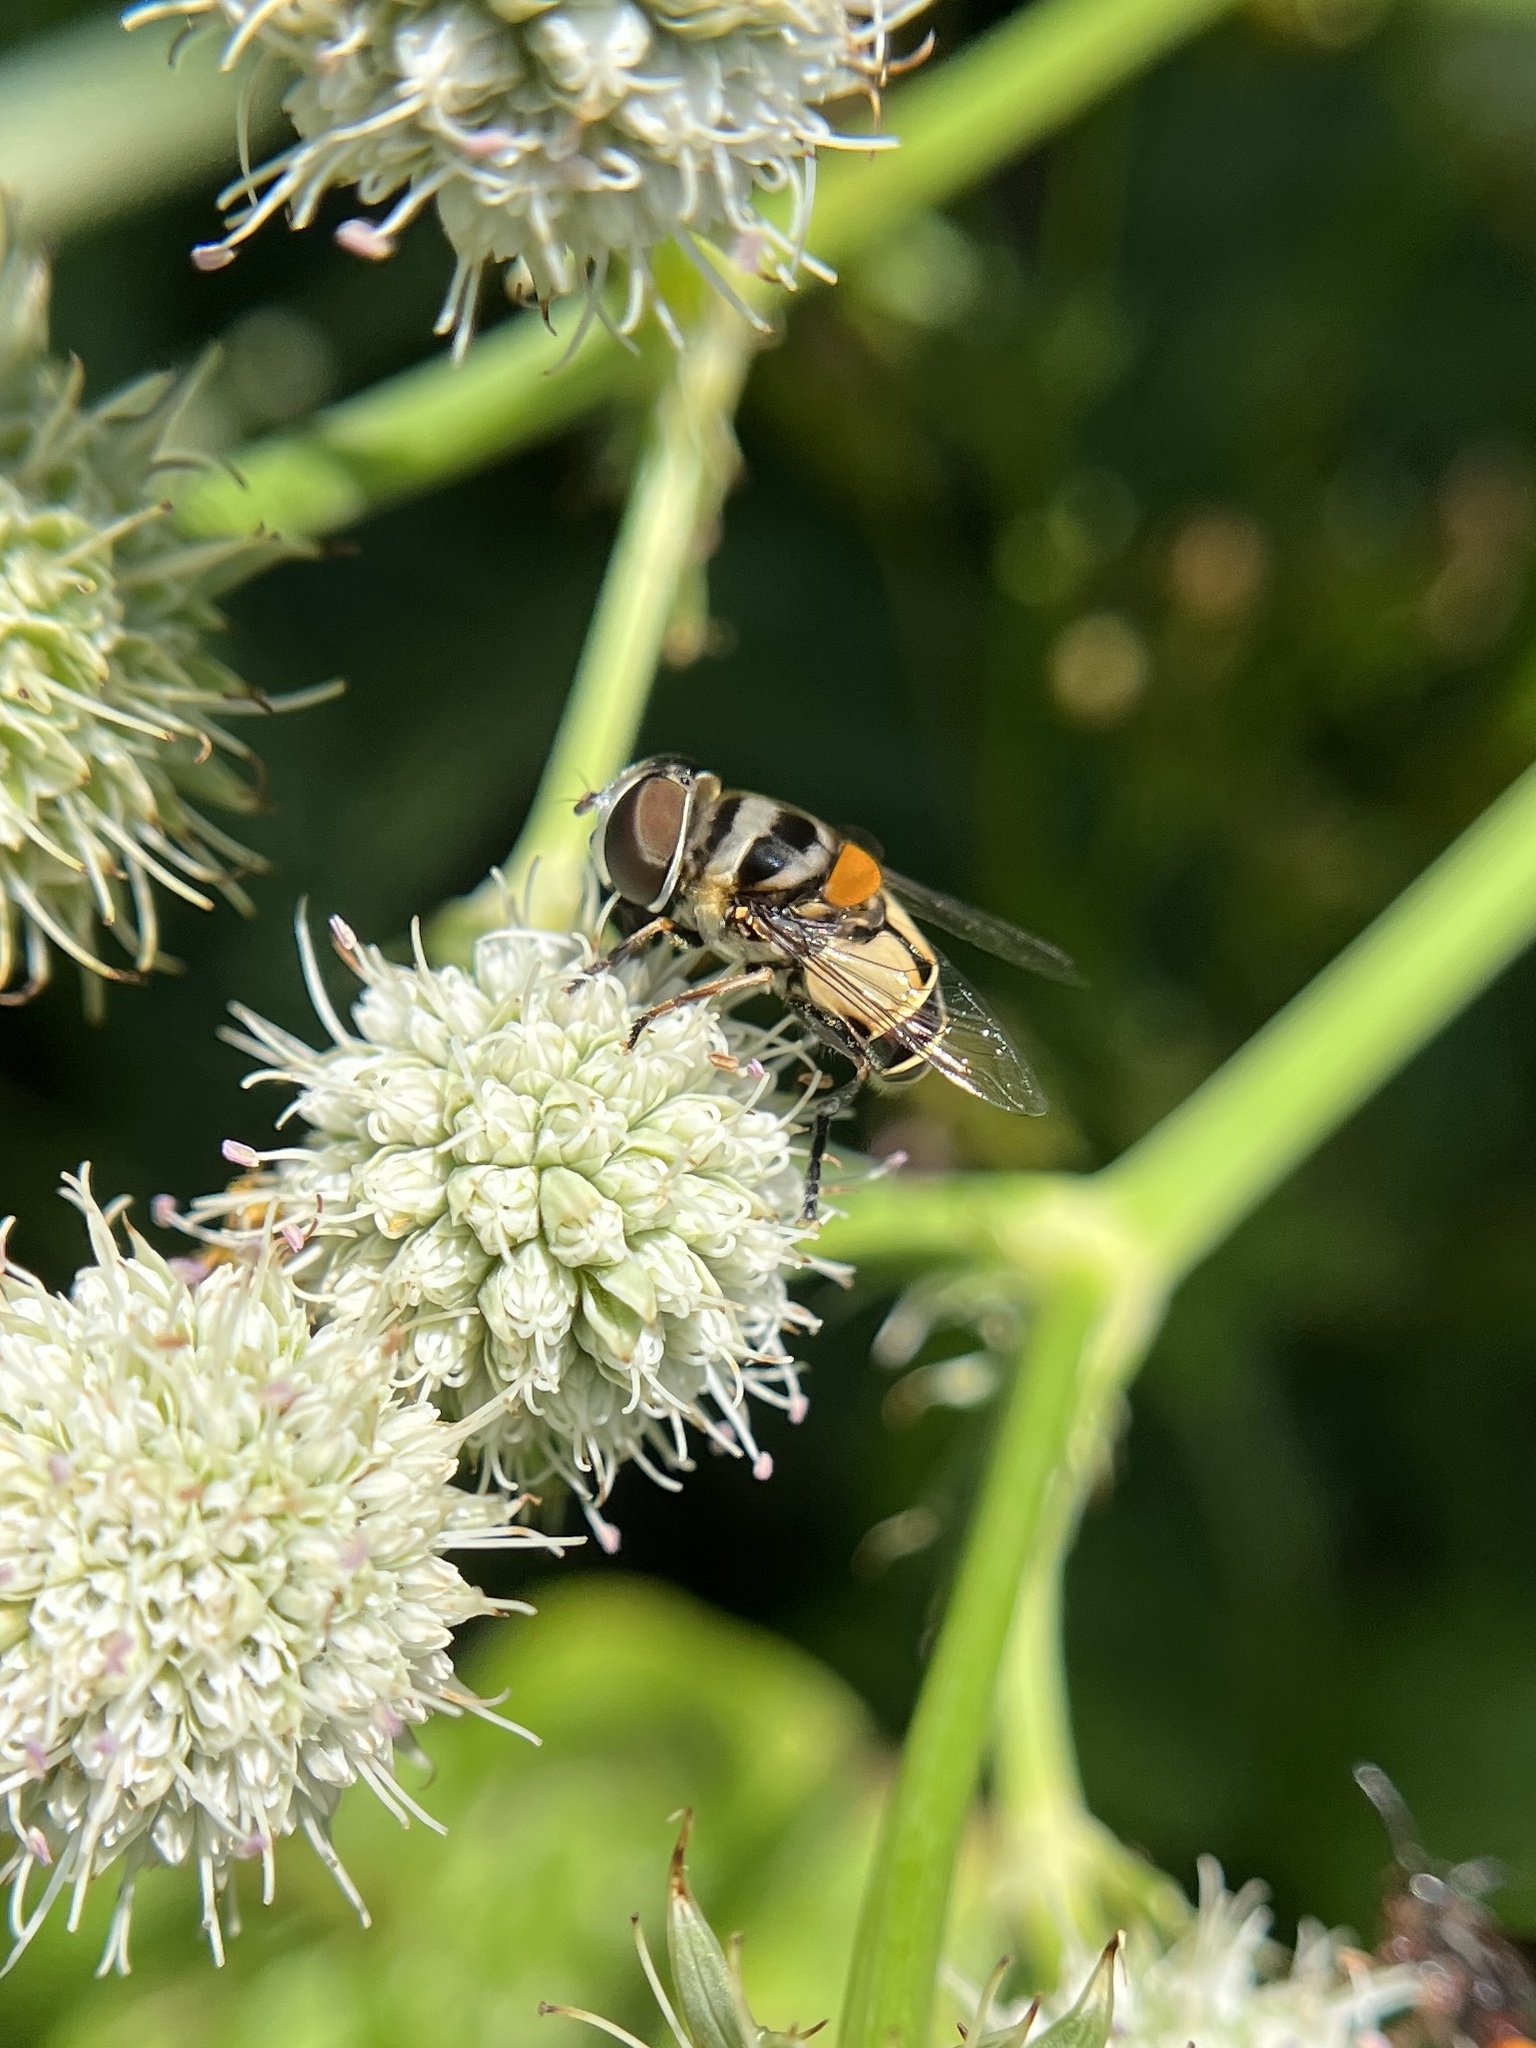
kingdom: Animalia
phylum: Arthropoda
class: Insecta
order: Diptera
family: Syrphidae
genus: Palpada
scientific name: Palpada albifrons
